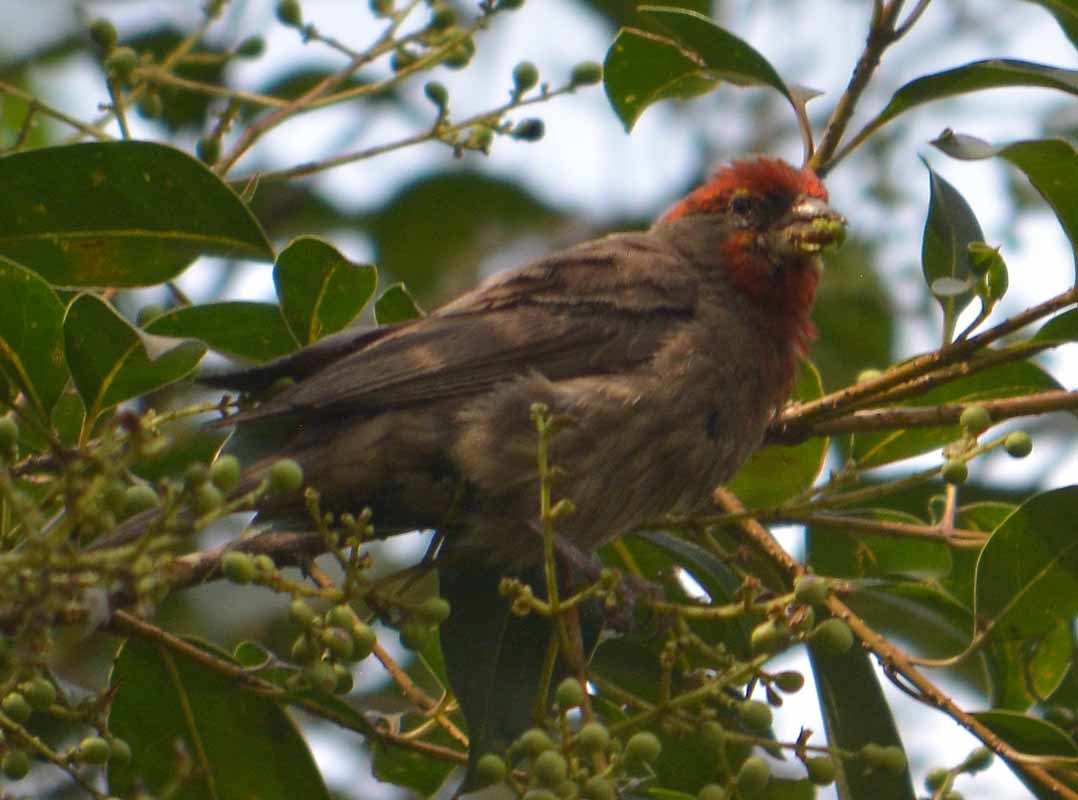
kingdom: Animalia
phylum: Chordata
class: Aves
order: Passeriformes
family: Fringillidae
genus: Haemorhous
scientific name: Haemorhous mexicanus
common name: House finch
